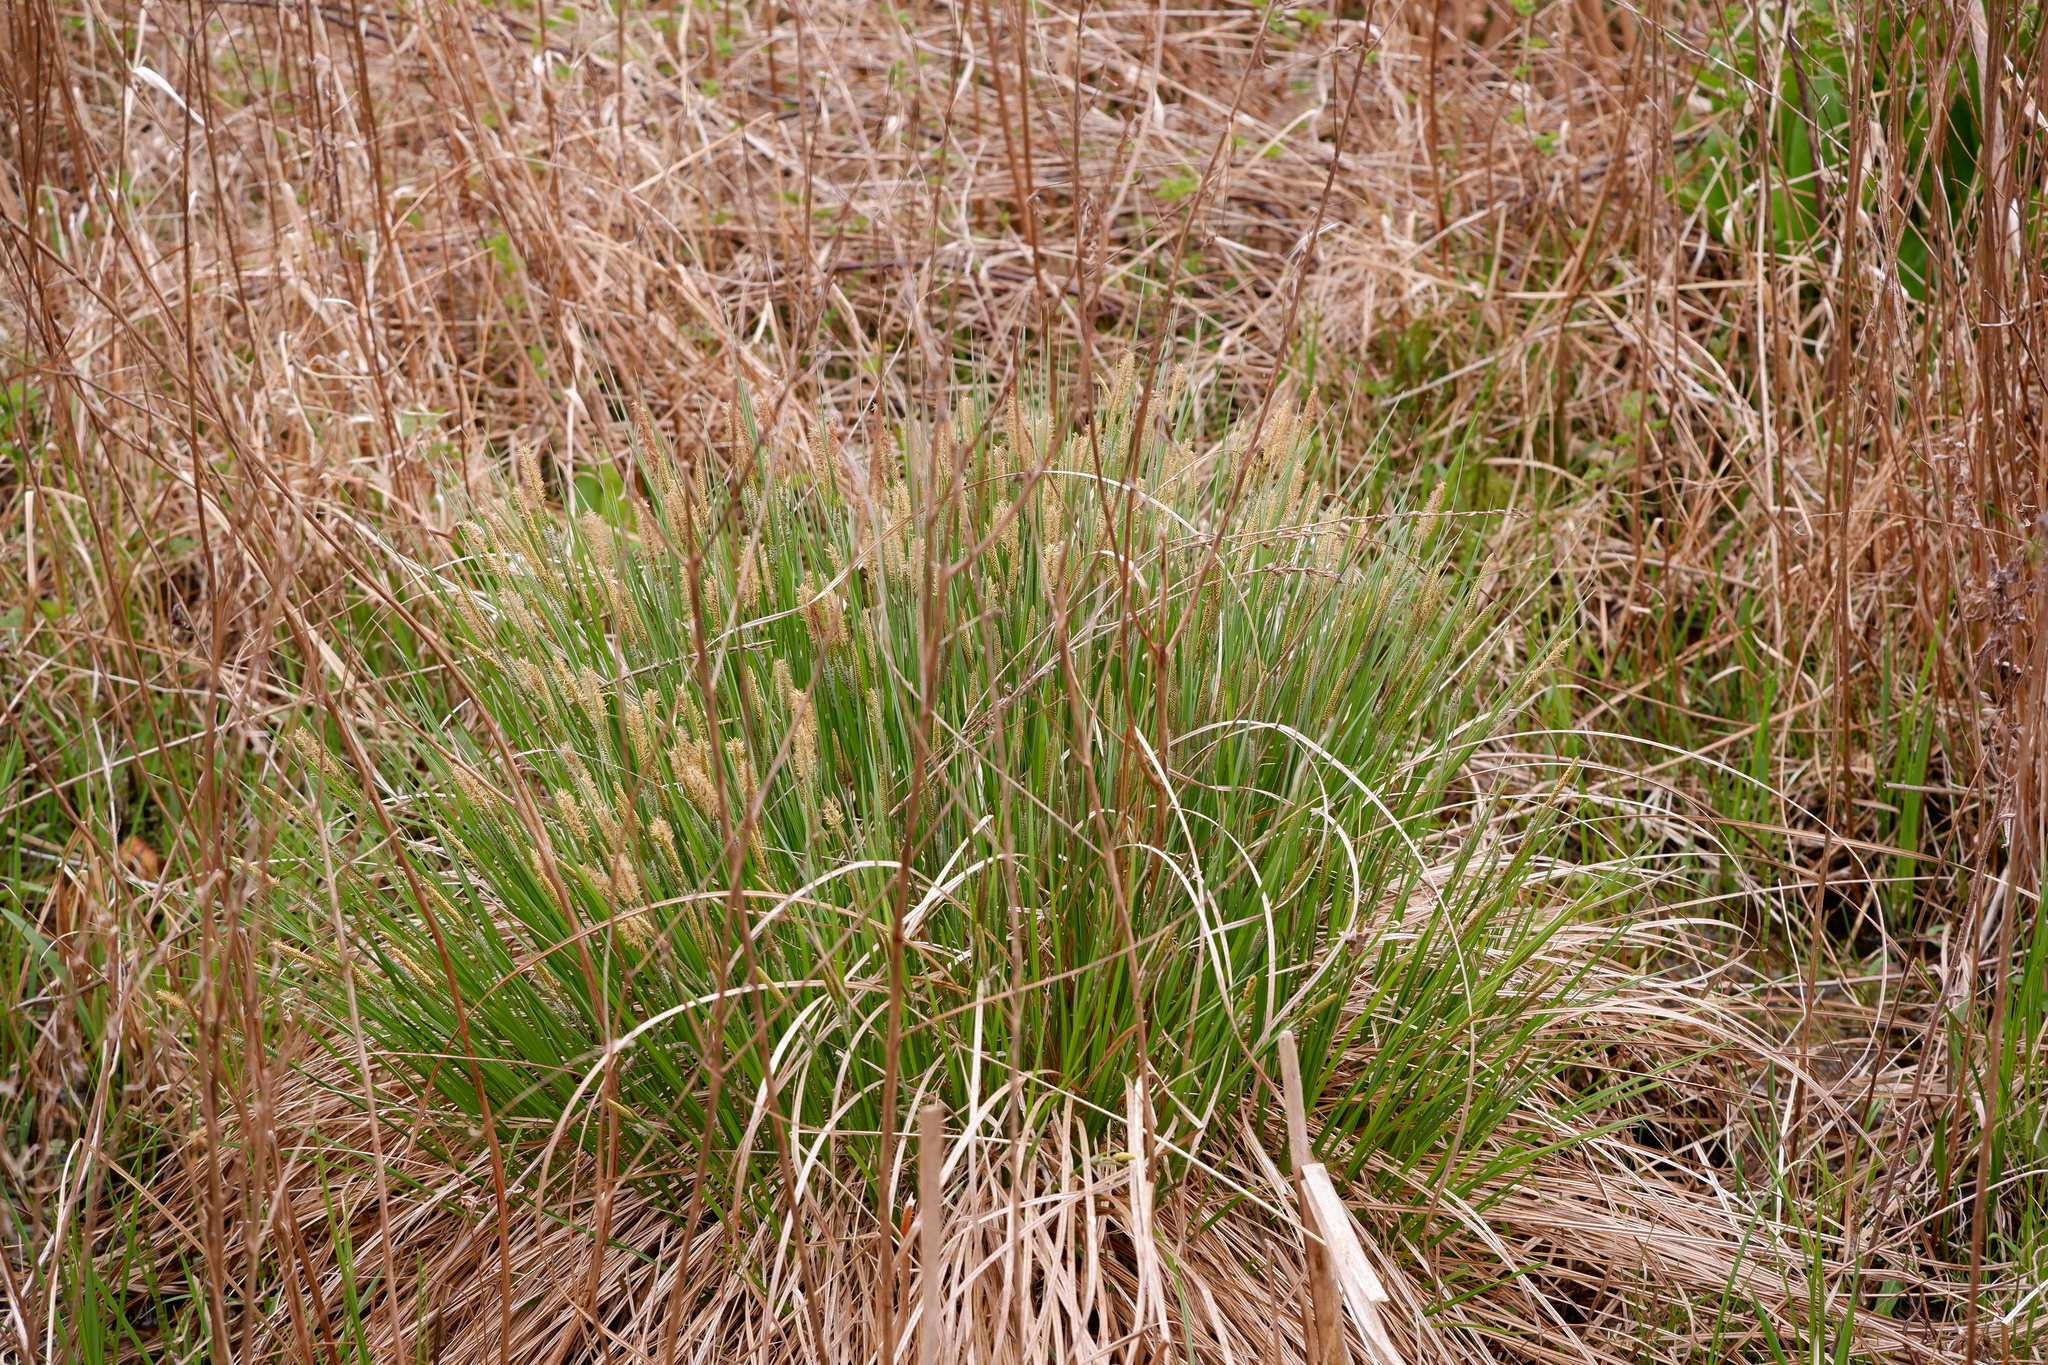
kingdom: Plantae
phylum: Tracheophyta
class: Liliopsida
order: Poales
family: Cyperaceae
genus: Carex
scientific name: Carex stricta
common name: Hummock sedge
